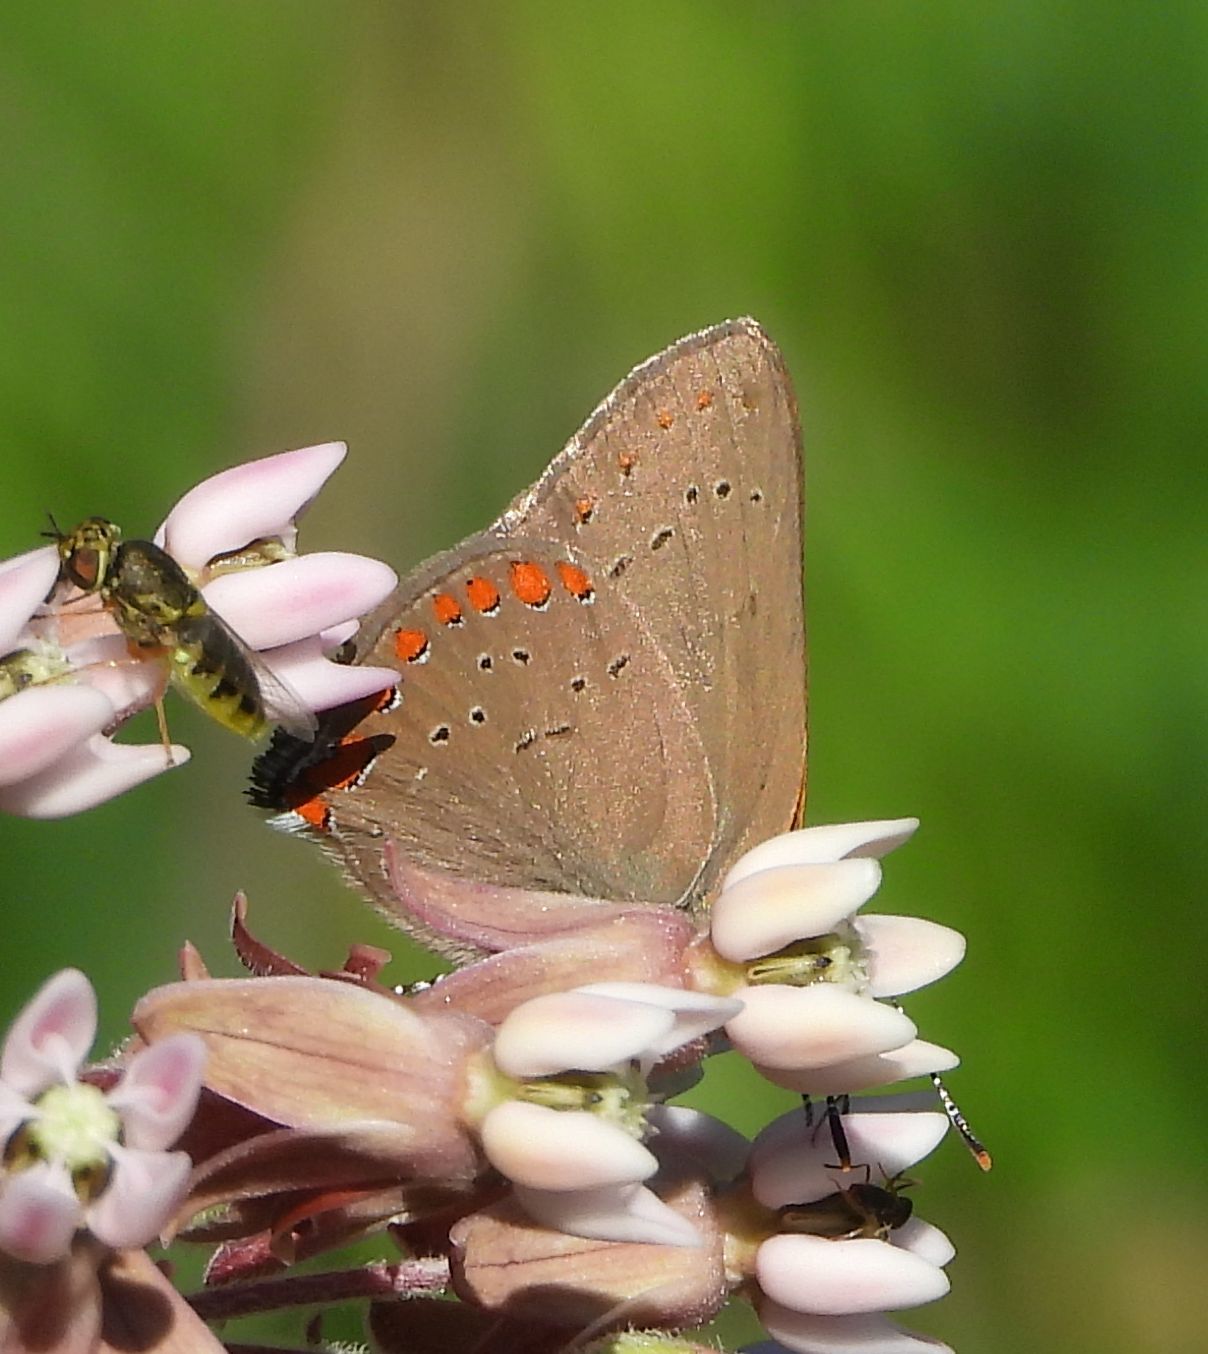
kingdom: Animalia
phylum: Arthropoda
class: Insecta
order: Lepidoptera
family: Lycaenidae
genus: Harkenclenus
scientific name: Harkenclenus titus
